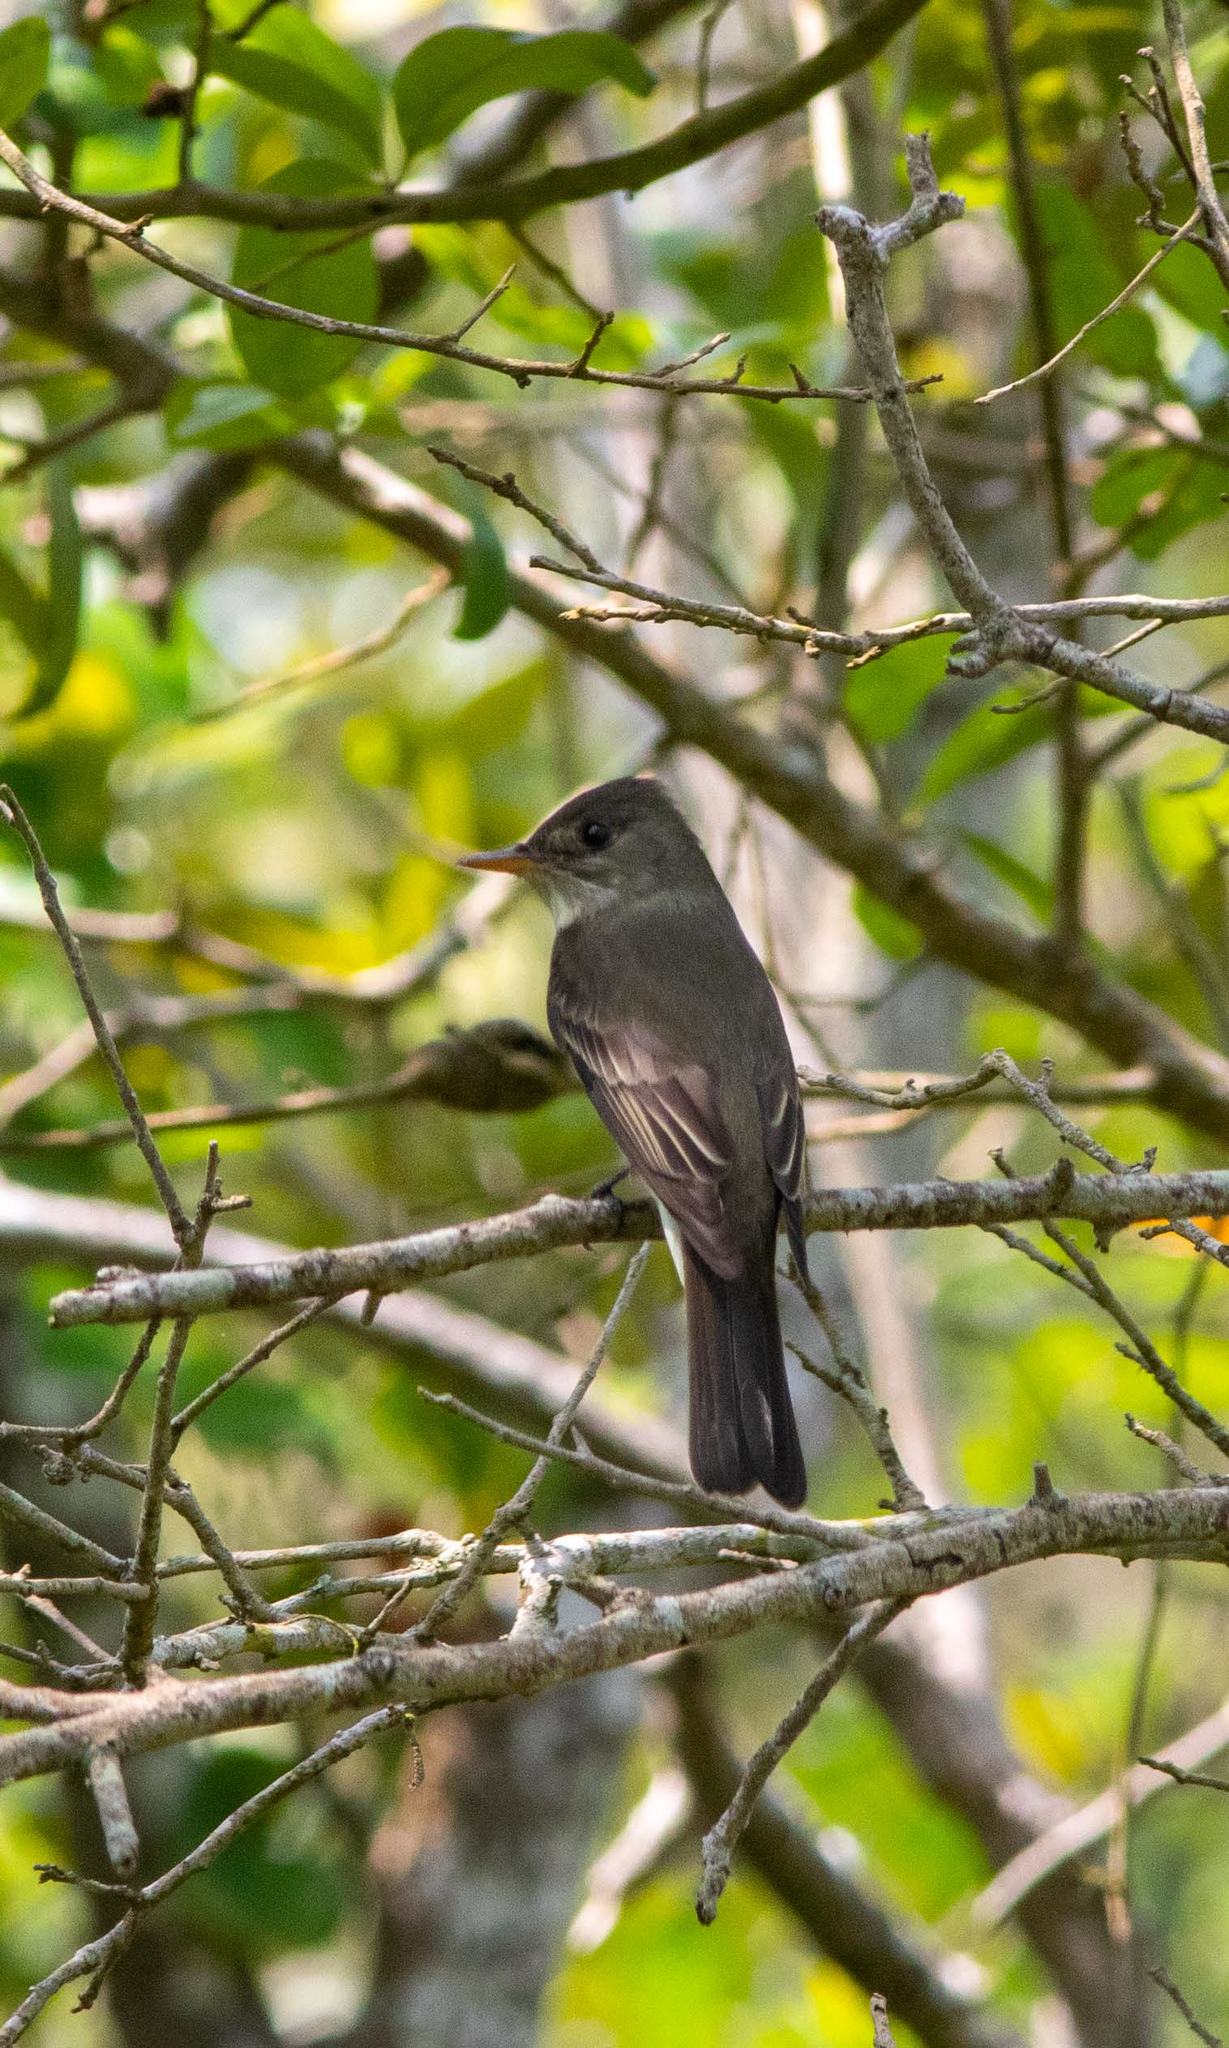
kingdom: Animalia
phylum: Chordata
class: Aves
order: Passeriformes
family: Tyrannidae
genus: Contopus
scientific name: Contopus virens
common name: Eastern wood-pewee
